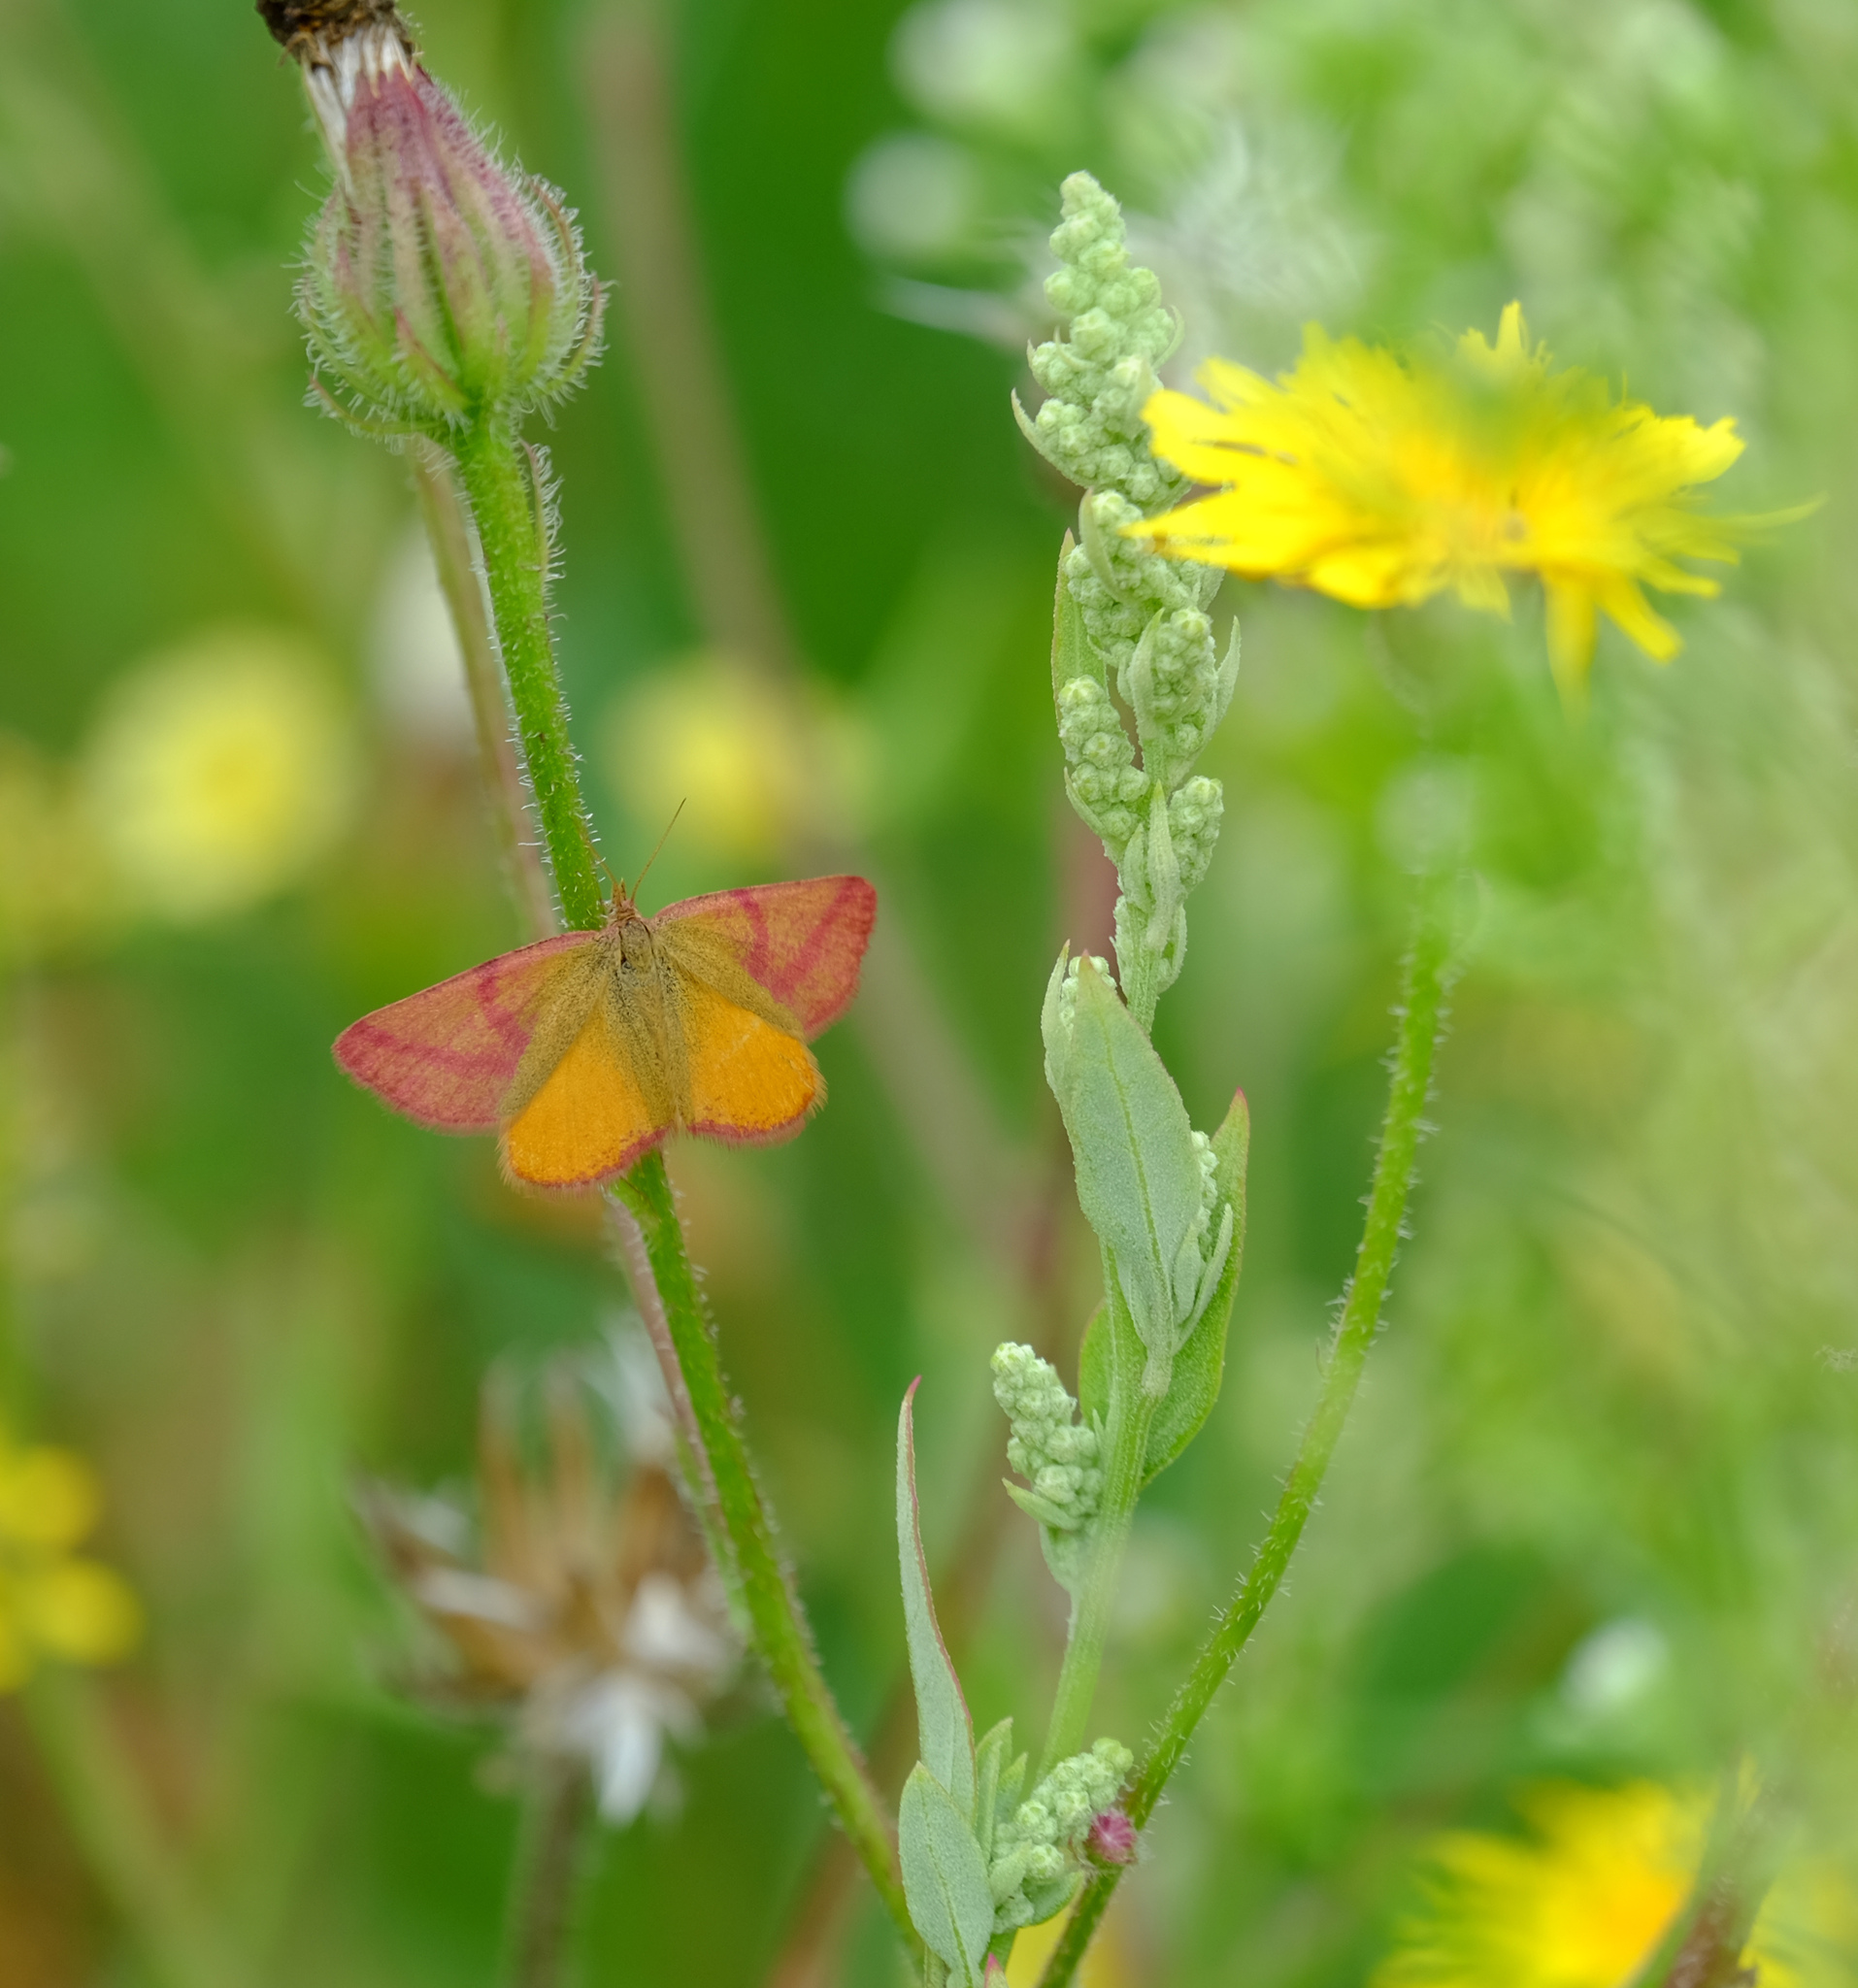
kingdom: Animalia
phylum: Arthropoda
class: Insecta
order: Lepidoptera
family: Geometridae
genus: Lythria
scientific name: Lythria purpuraria
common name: Purple-barred yellow
